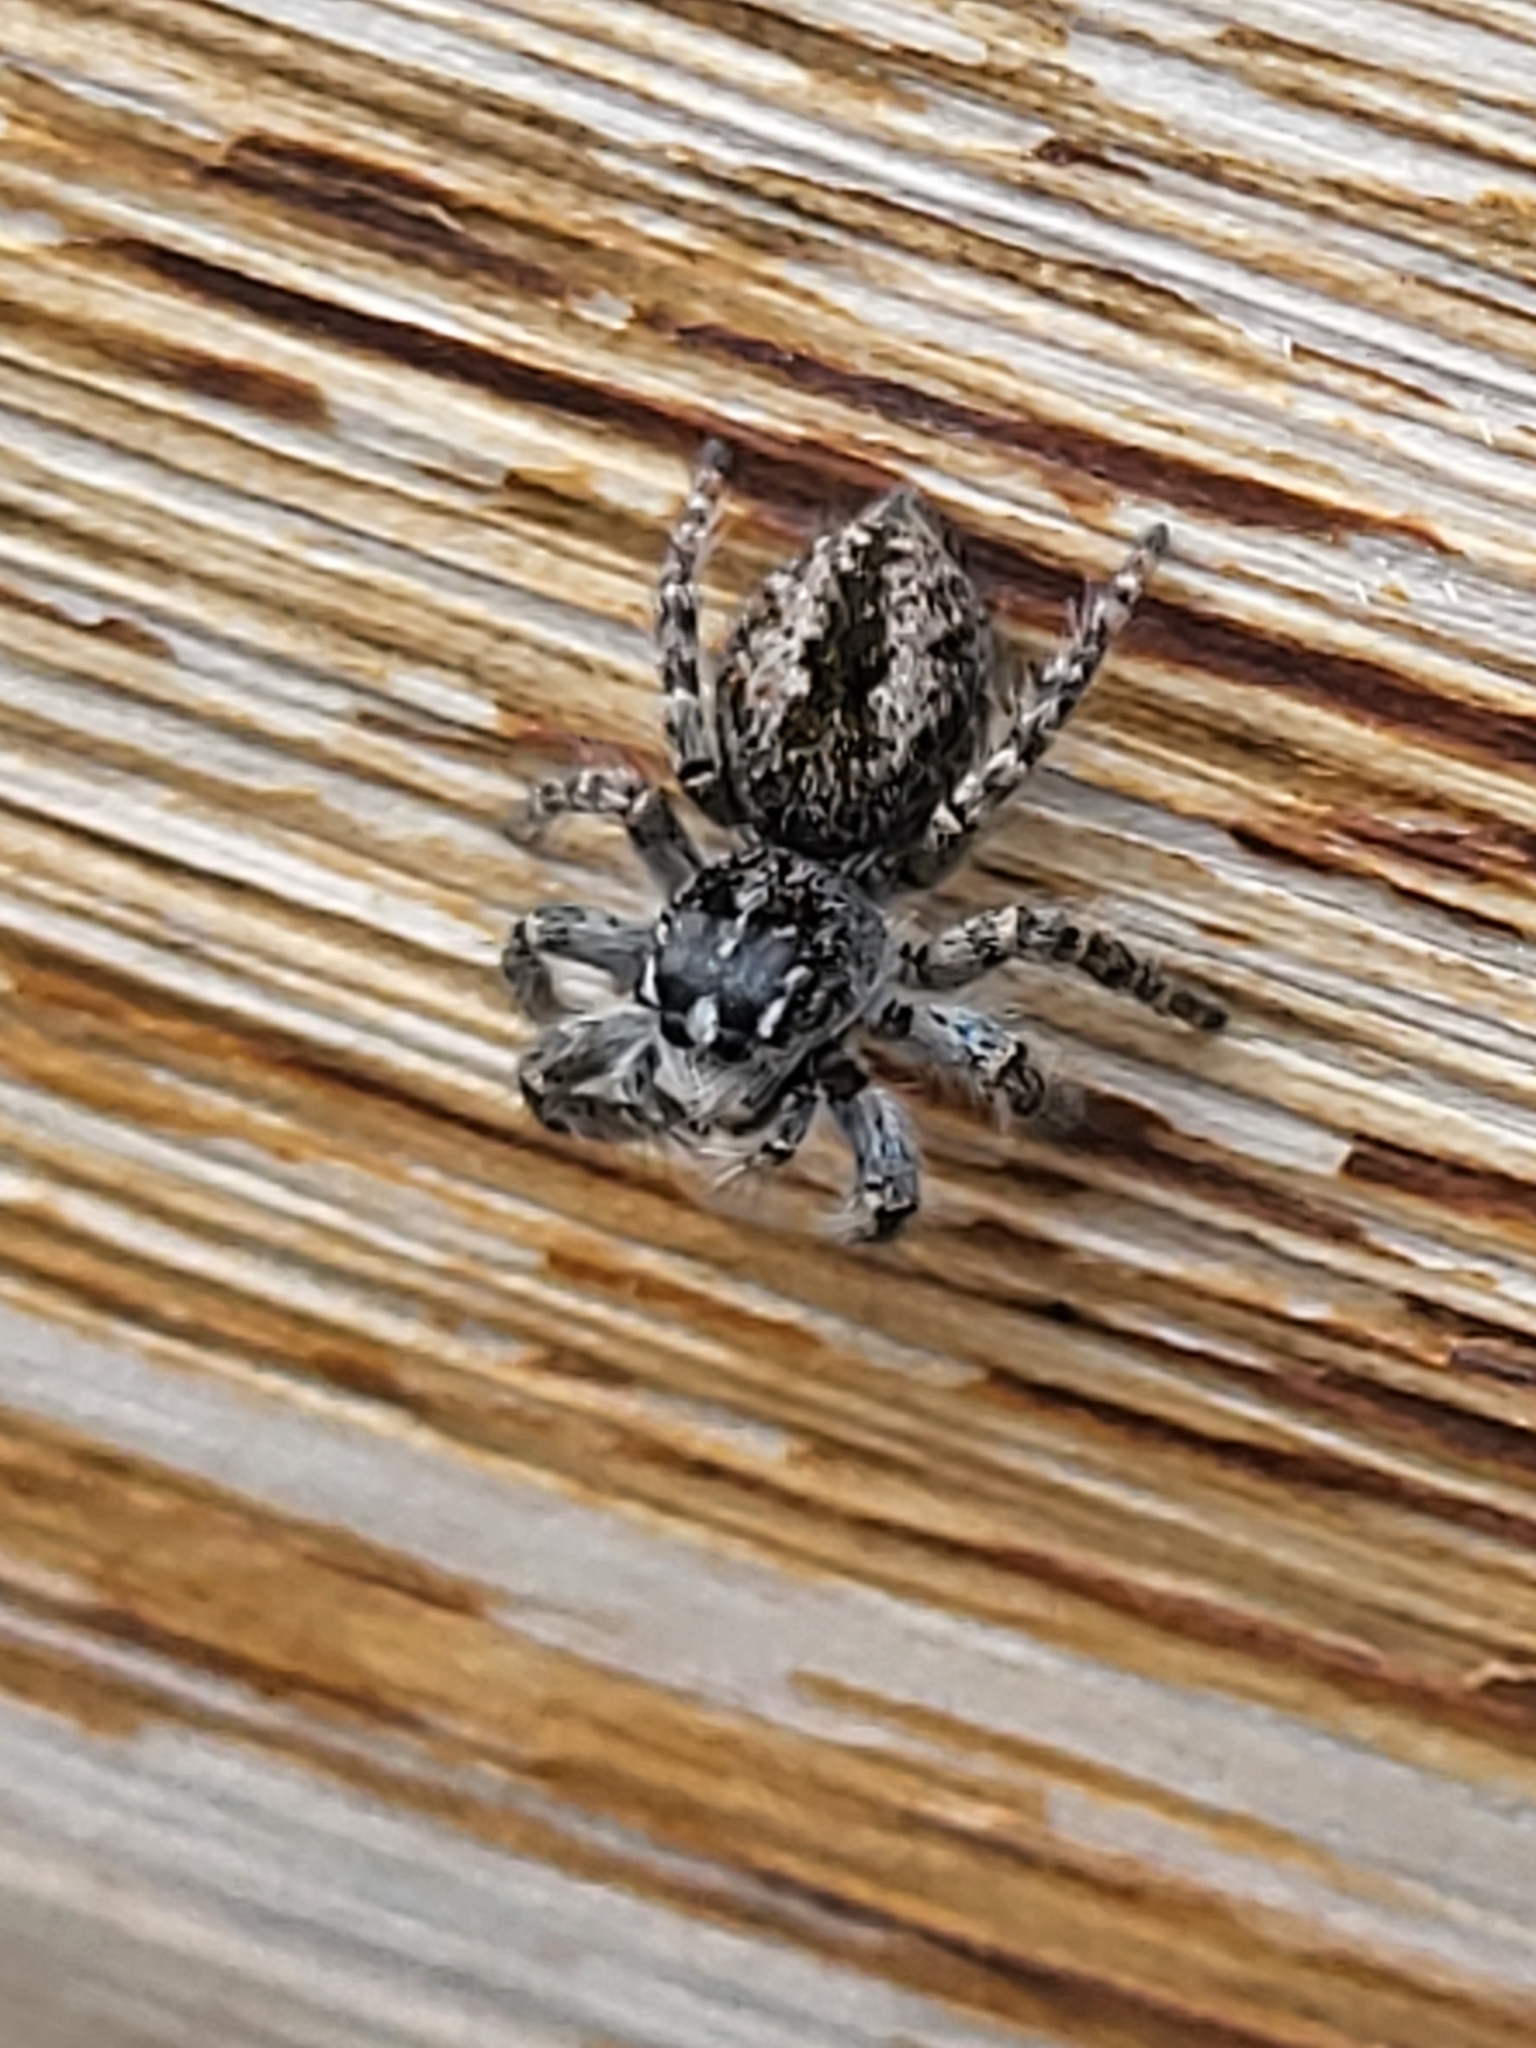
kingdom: Animalia
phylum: Arthropoda
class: Arachnida
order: Araneae
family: Salticidae
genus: Philaeus
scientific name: Philaeus chrysops
